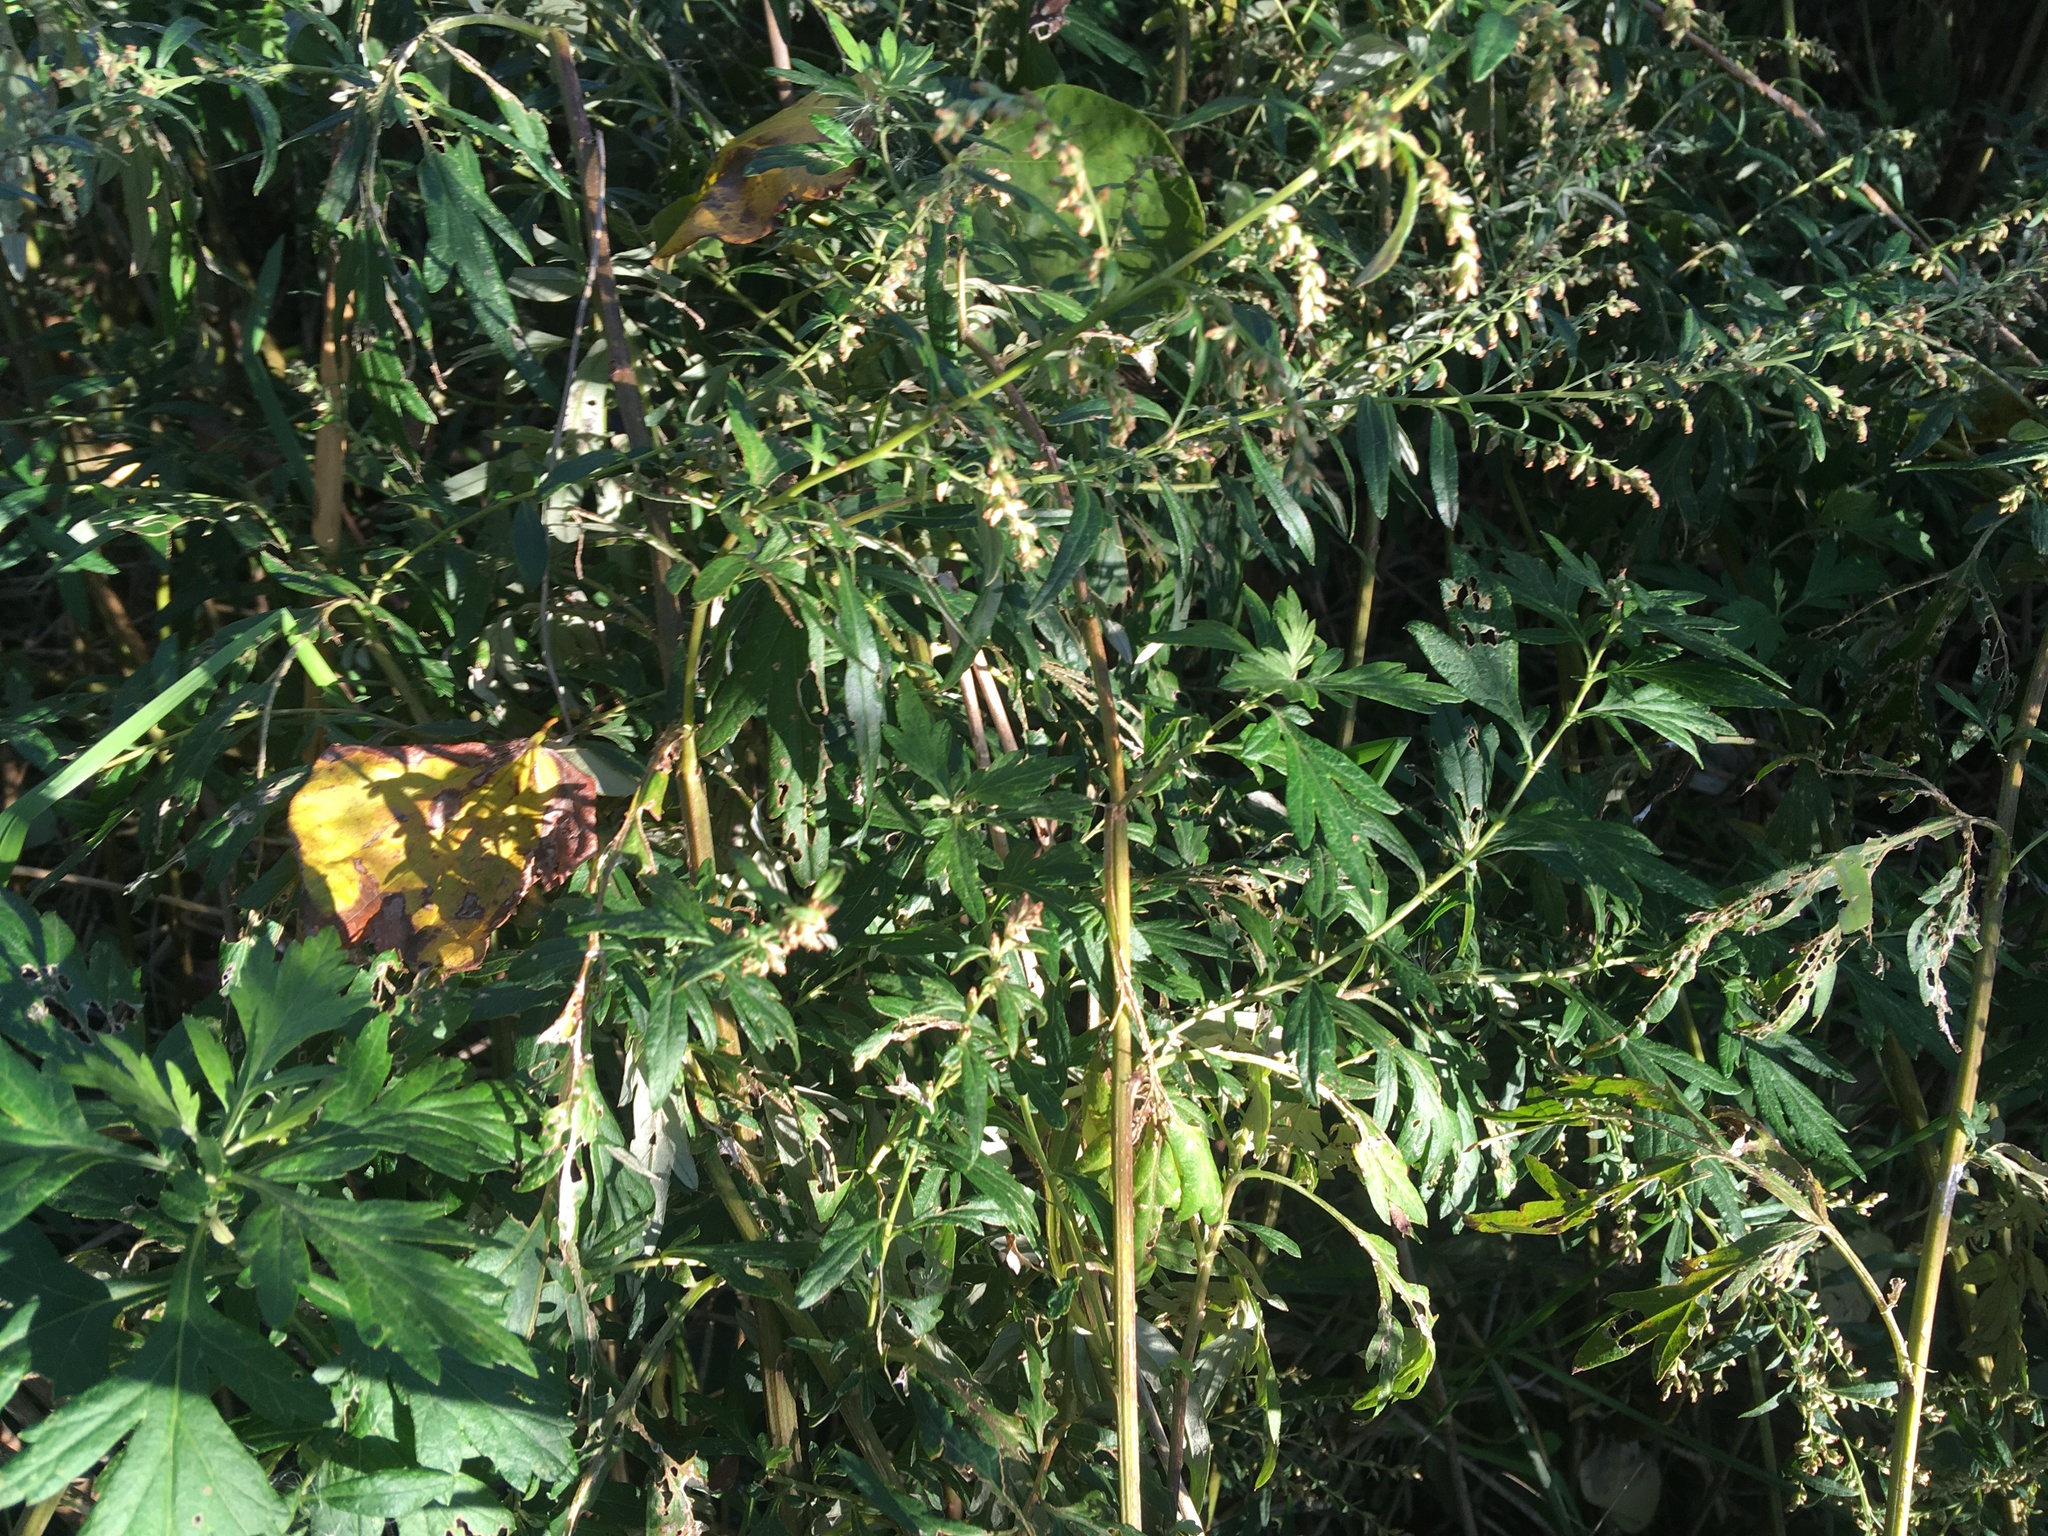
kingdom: Plantae
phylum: Tracheophyta
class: Magnoliopsida
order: Asterales
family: Asteraceae
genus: Artemisia
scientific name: Artemisia vulgaris
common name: Mugwort
